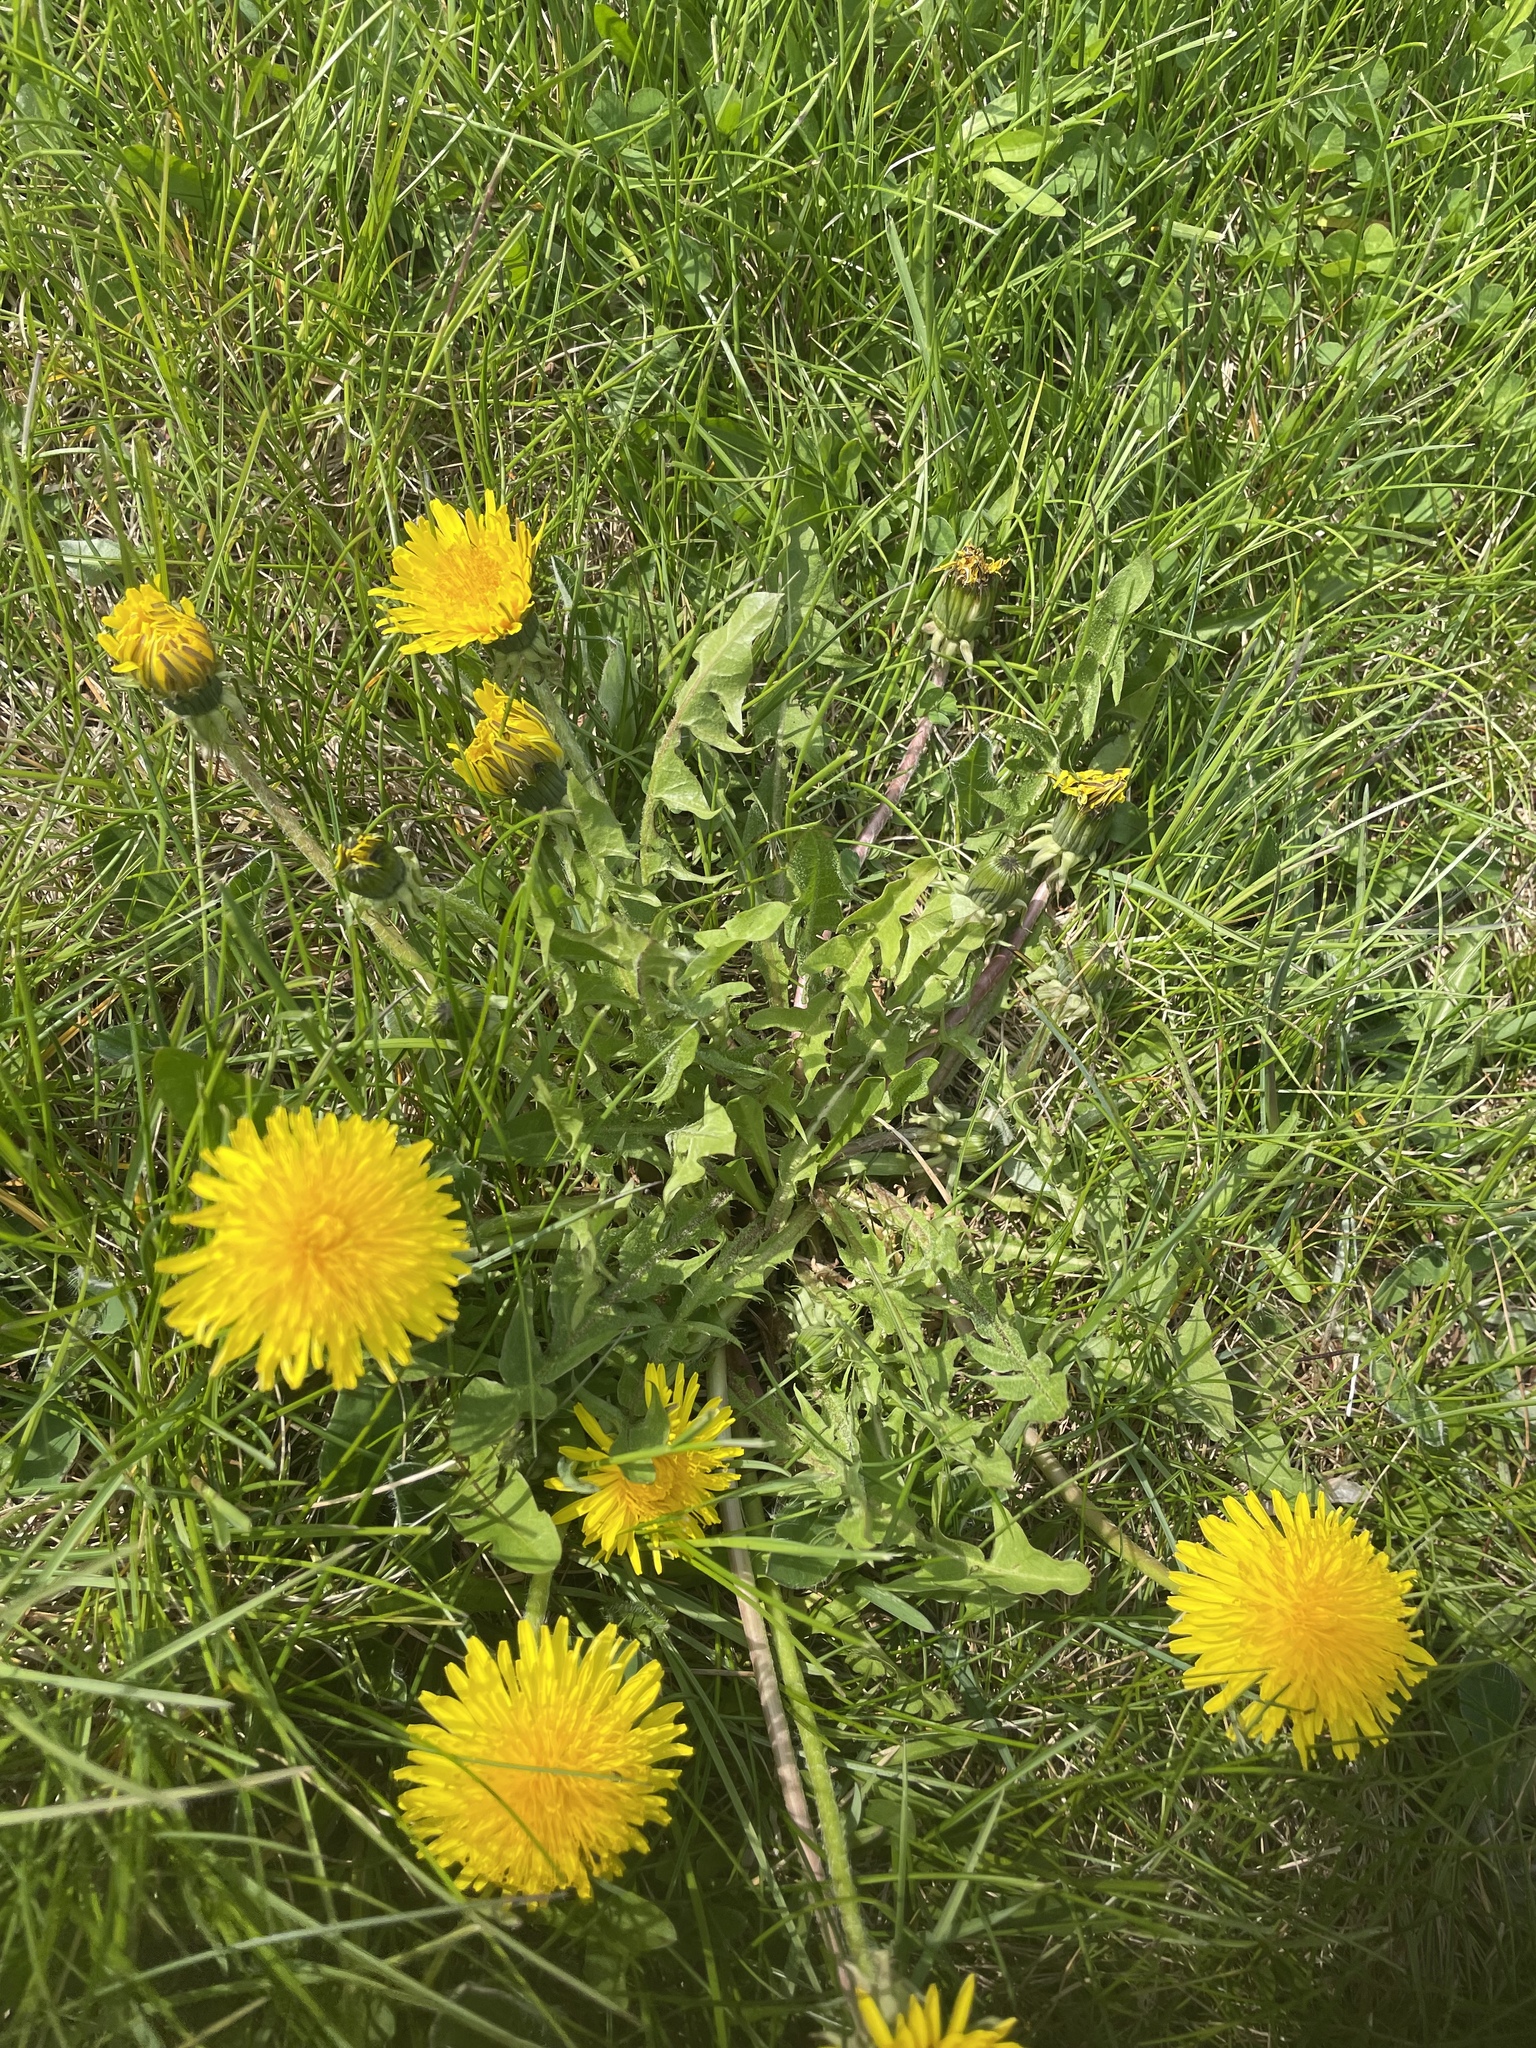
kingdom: Plantae
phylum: Tracheophyta
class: Magnoliopsida
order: Asterales
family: Asteraceae
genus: Taraxacum
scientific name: Taraxacum officinale
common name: Common dandelion
